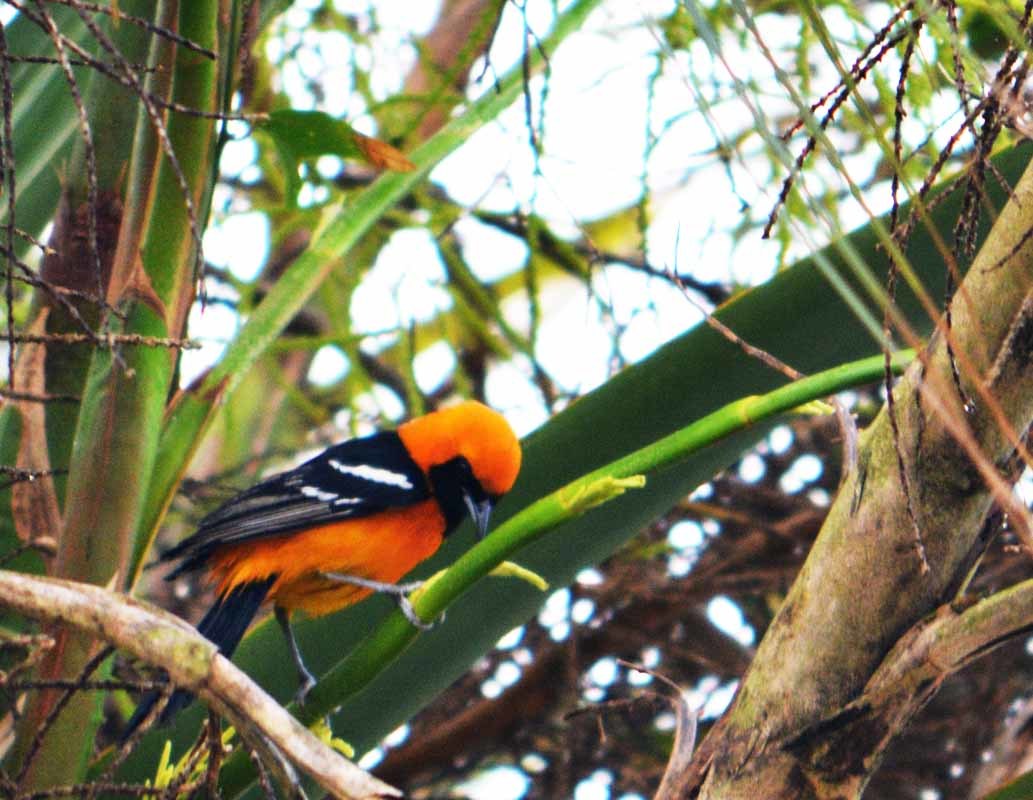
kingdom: Animalia
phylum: Chordata
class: Aves
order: Passeriformes
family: Icteridae
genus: Icterus
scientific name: Icterus cucullatus
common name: Hooded oriole
